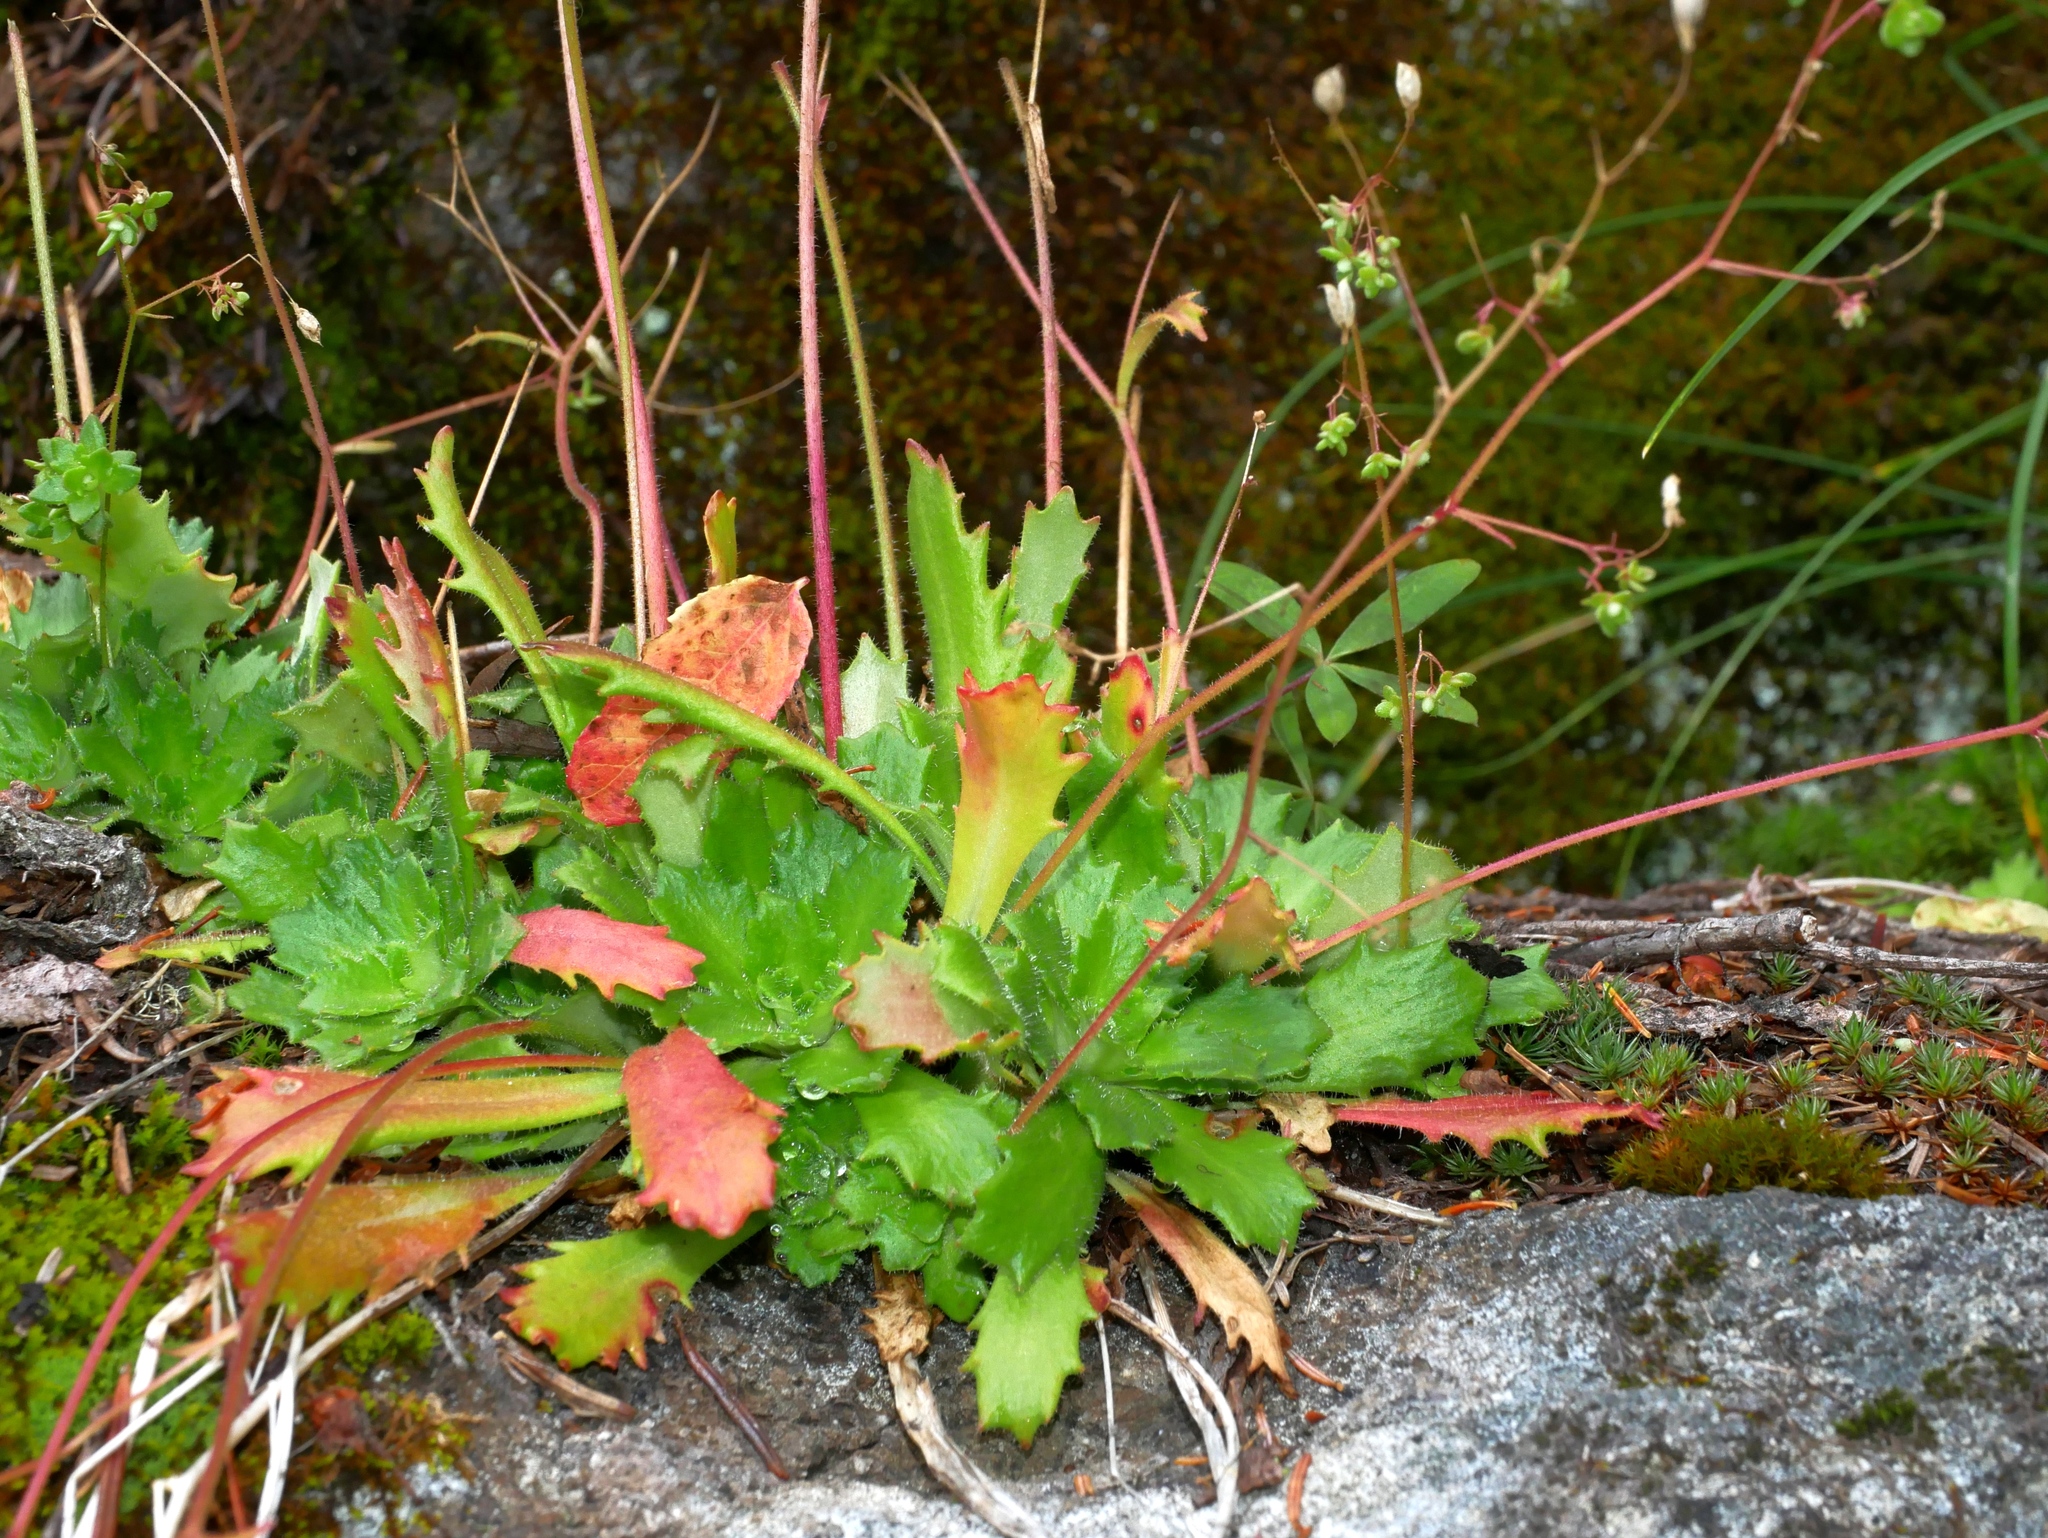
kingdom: Plantae
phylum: Tracheophyta
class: Magnoliopsida
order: Saxifragales
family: Saxifragaceae
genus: Micranthes
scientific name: Micranthes ferruginea
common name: Rusty saxifrage
